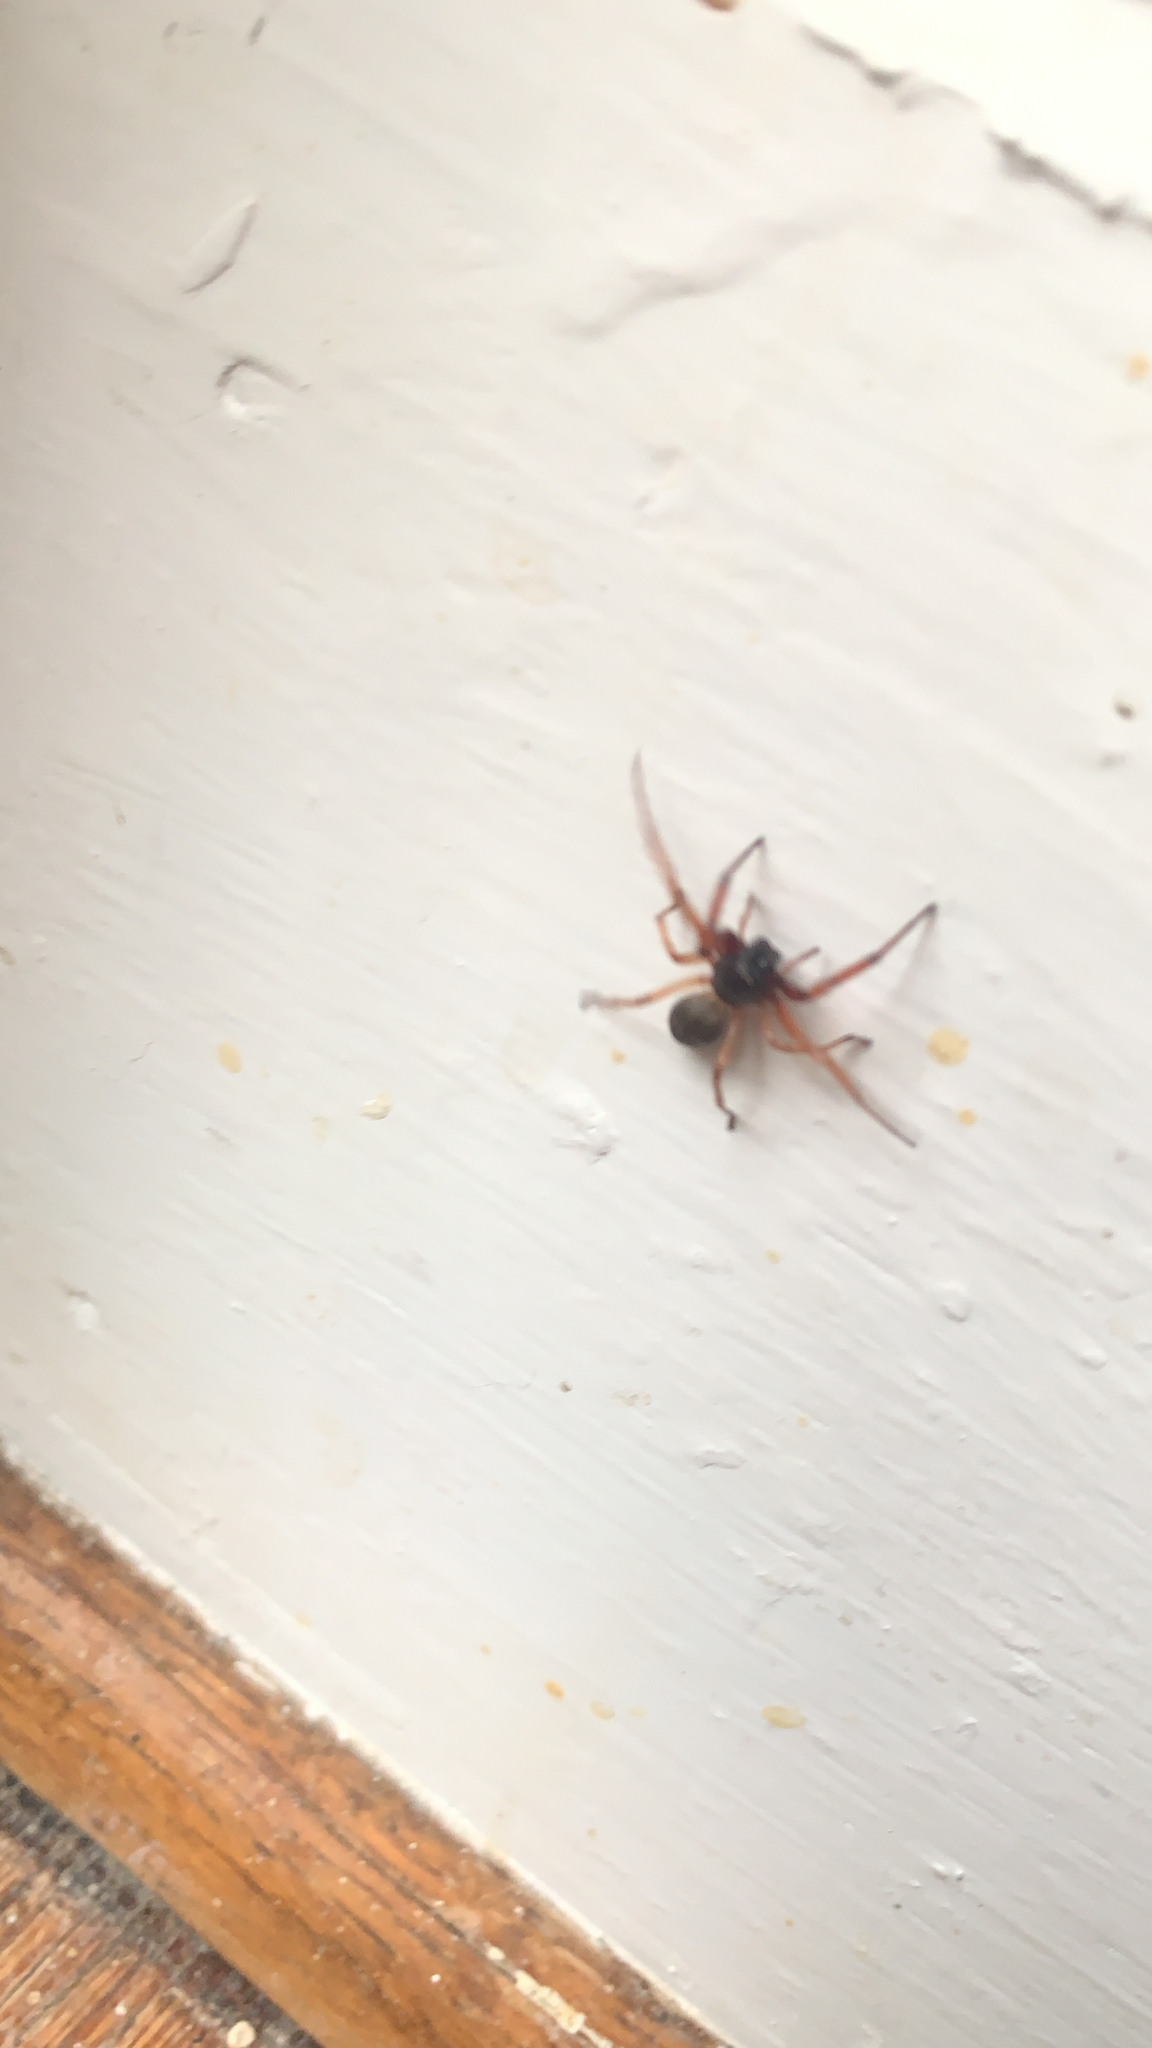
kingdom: Animalia
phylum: Arthropoda
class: Arachnida
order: Araneae
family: Trachelidae
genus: Trachelas
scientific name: Trachelas tranquillus
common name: Broad-faced sac spider
